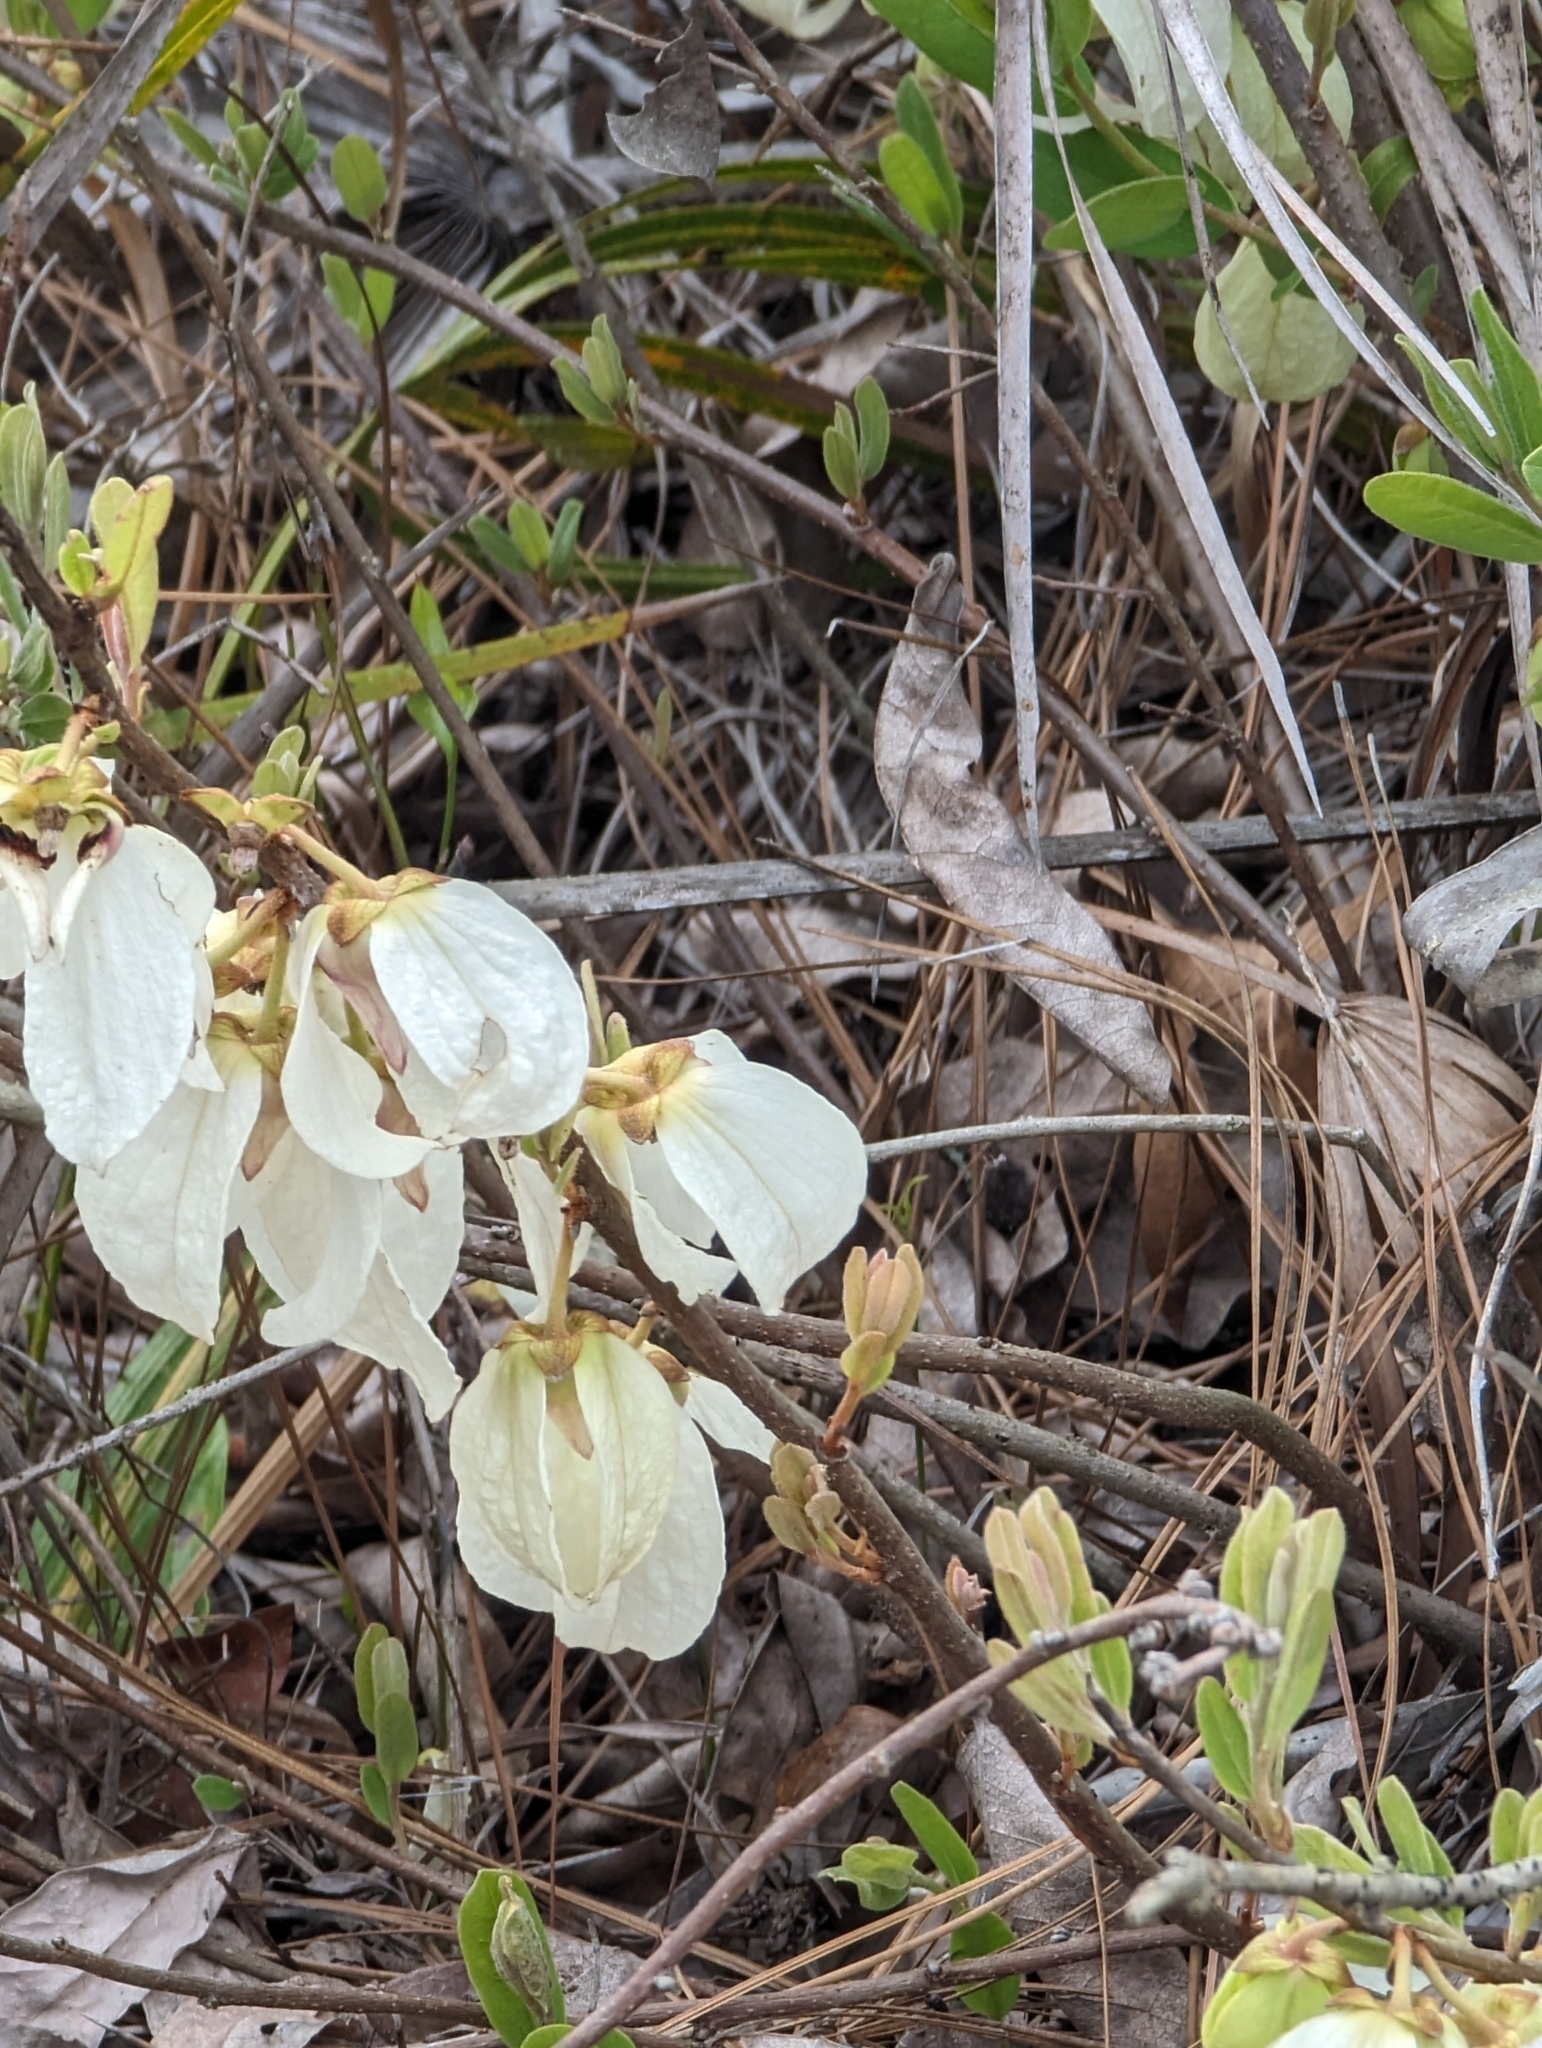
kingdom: Plantae
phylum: Tracheophyta
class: Magnoliopsida
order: Magnoliales
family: Annonaceae
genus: Asimina
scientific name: Asimina speciosa
